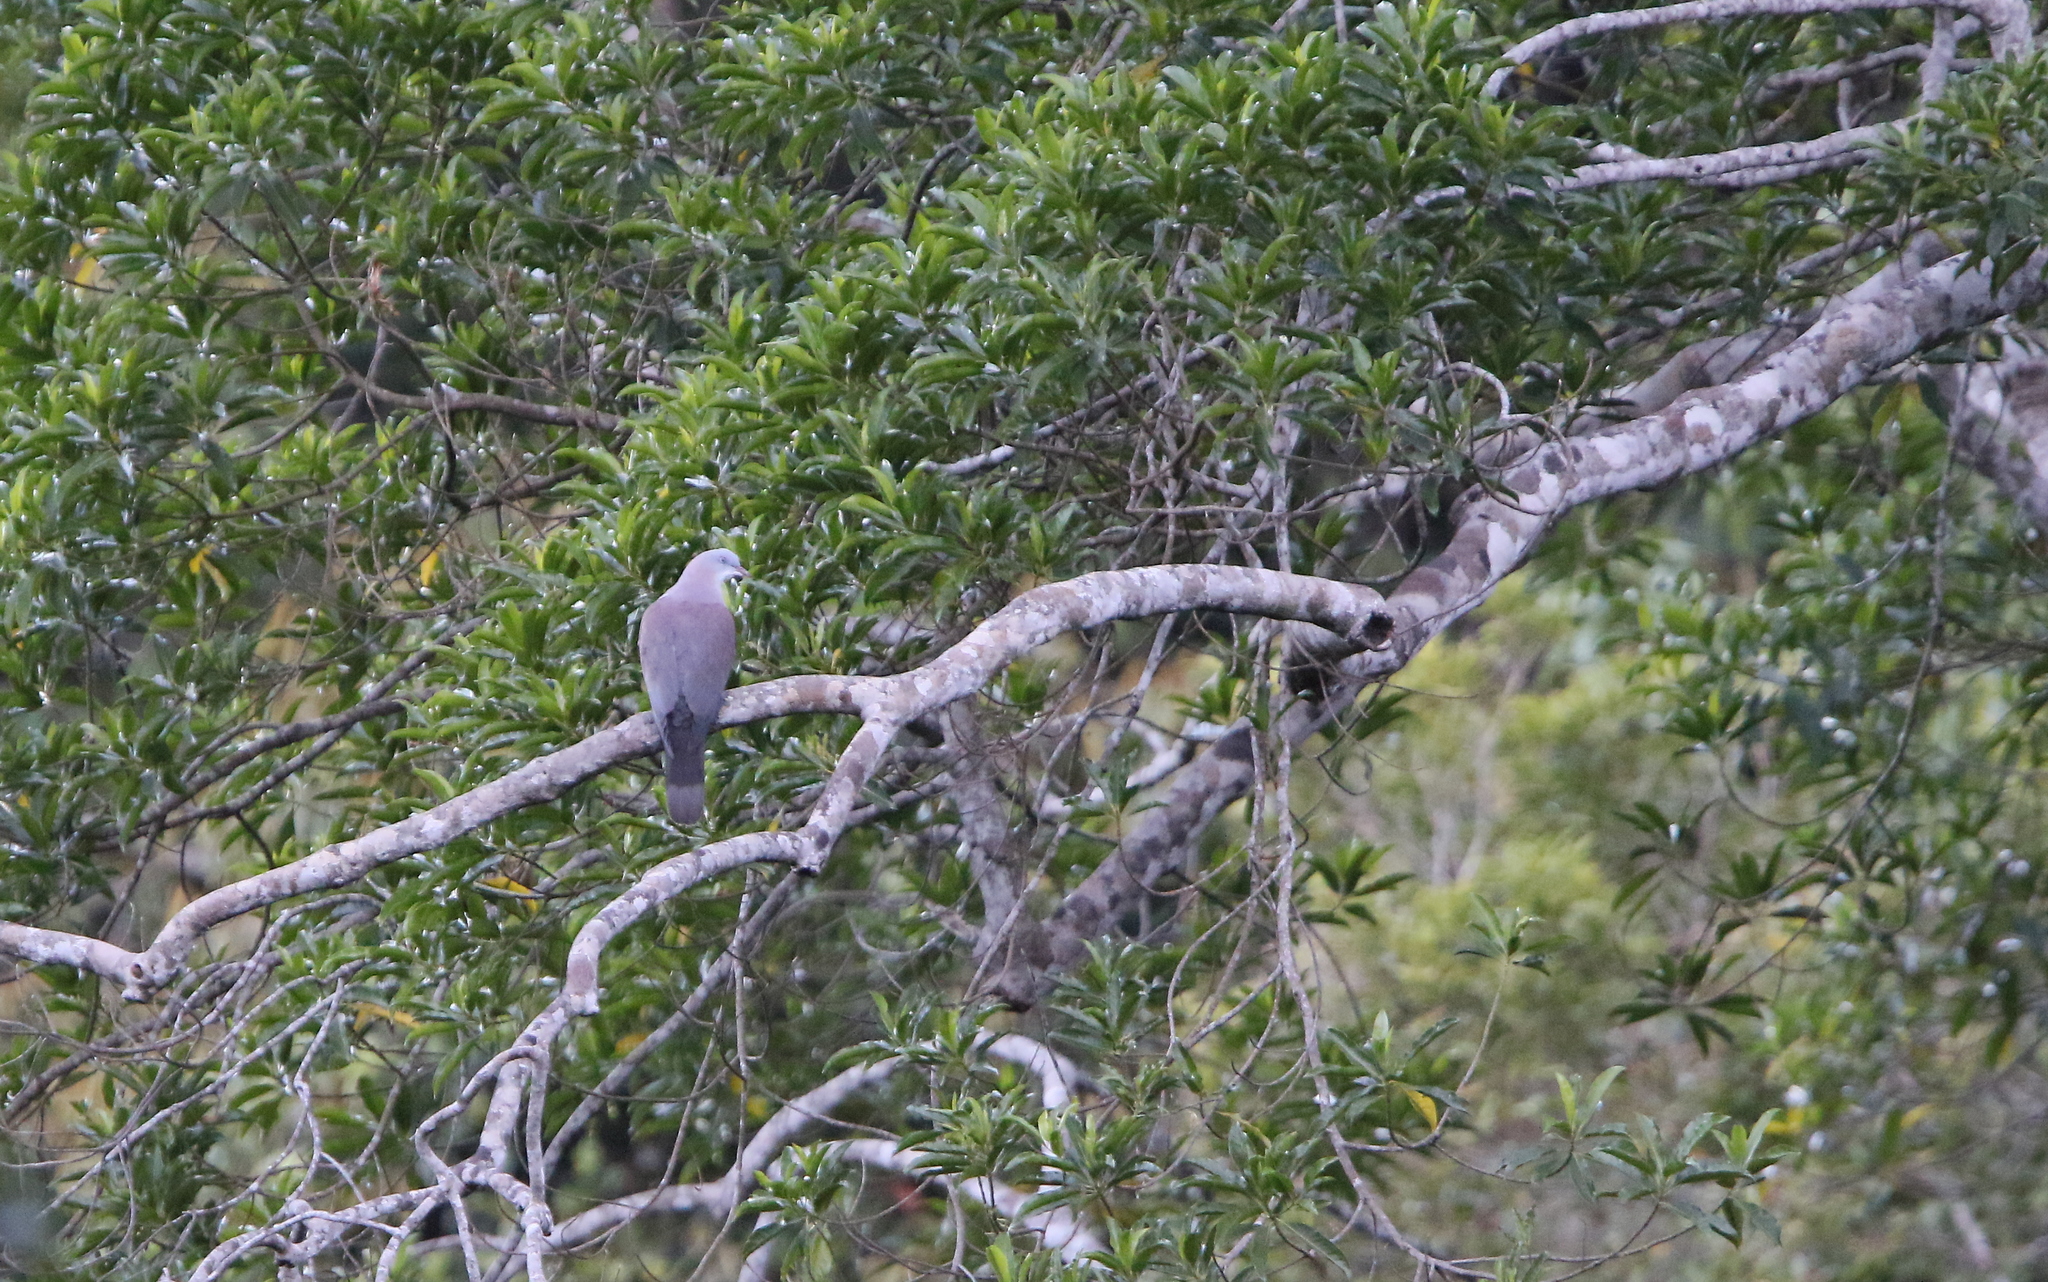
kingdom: Animalia
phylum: Chordata
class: Aves
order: Columbiformes
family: Columbidae
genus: Ducula
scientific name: Ducula badia
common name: Mountain imperial pigeon
